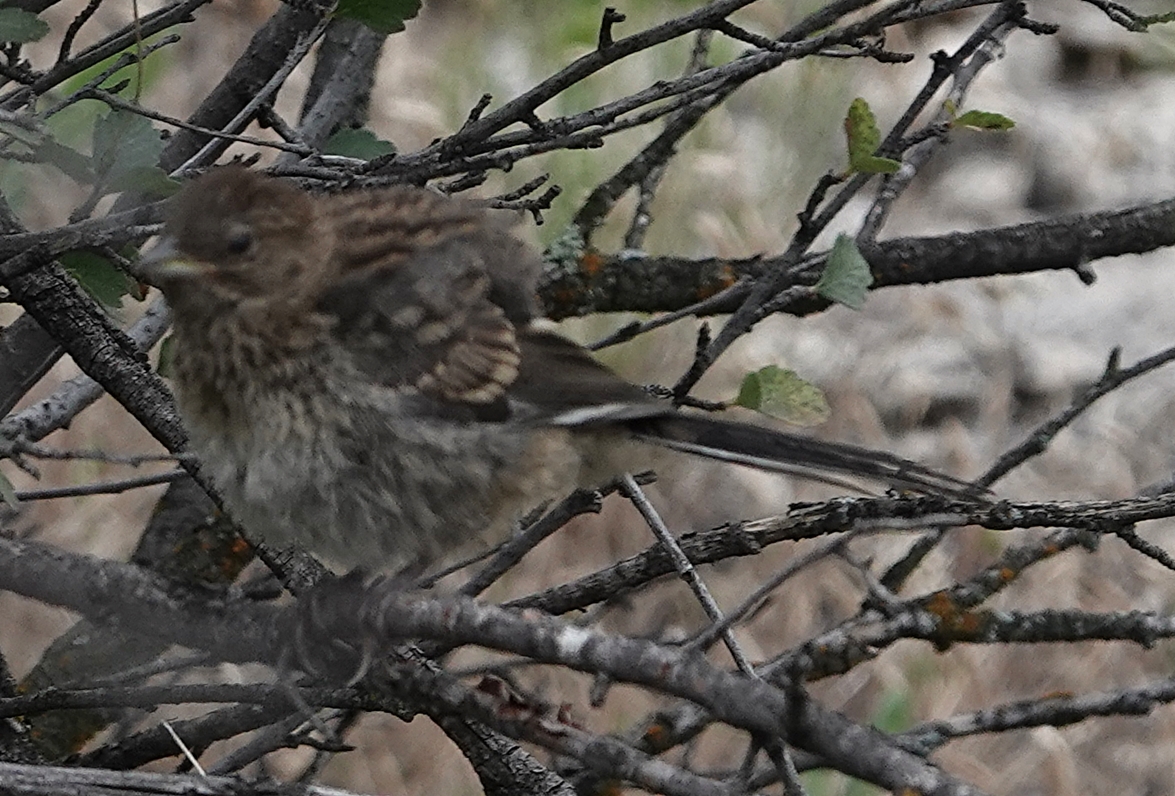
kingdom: Animalia
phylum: Chordata
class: Aves
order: Passeriformes
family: Passerellidae
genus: Pipilo
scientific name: Pipilo maculatus
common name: Spotted towhee
